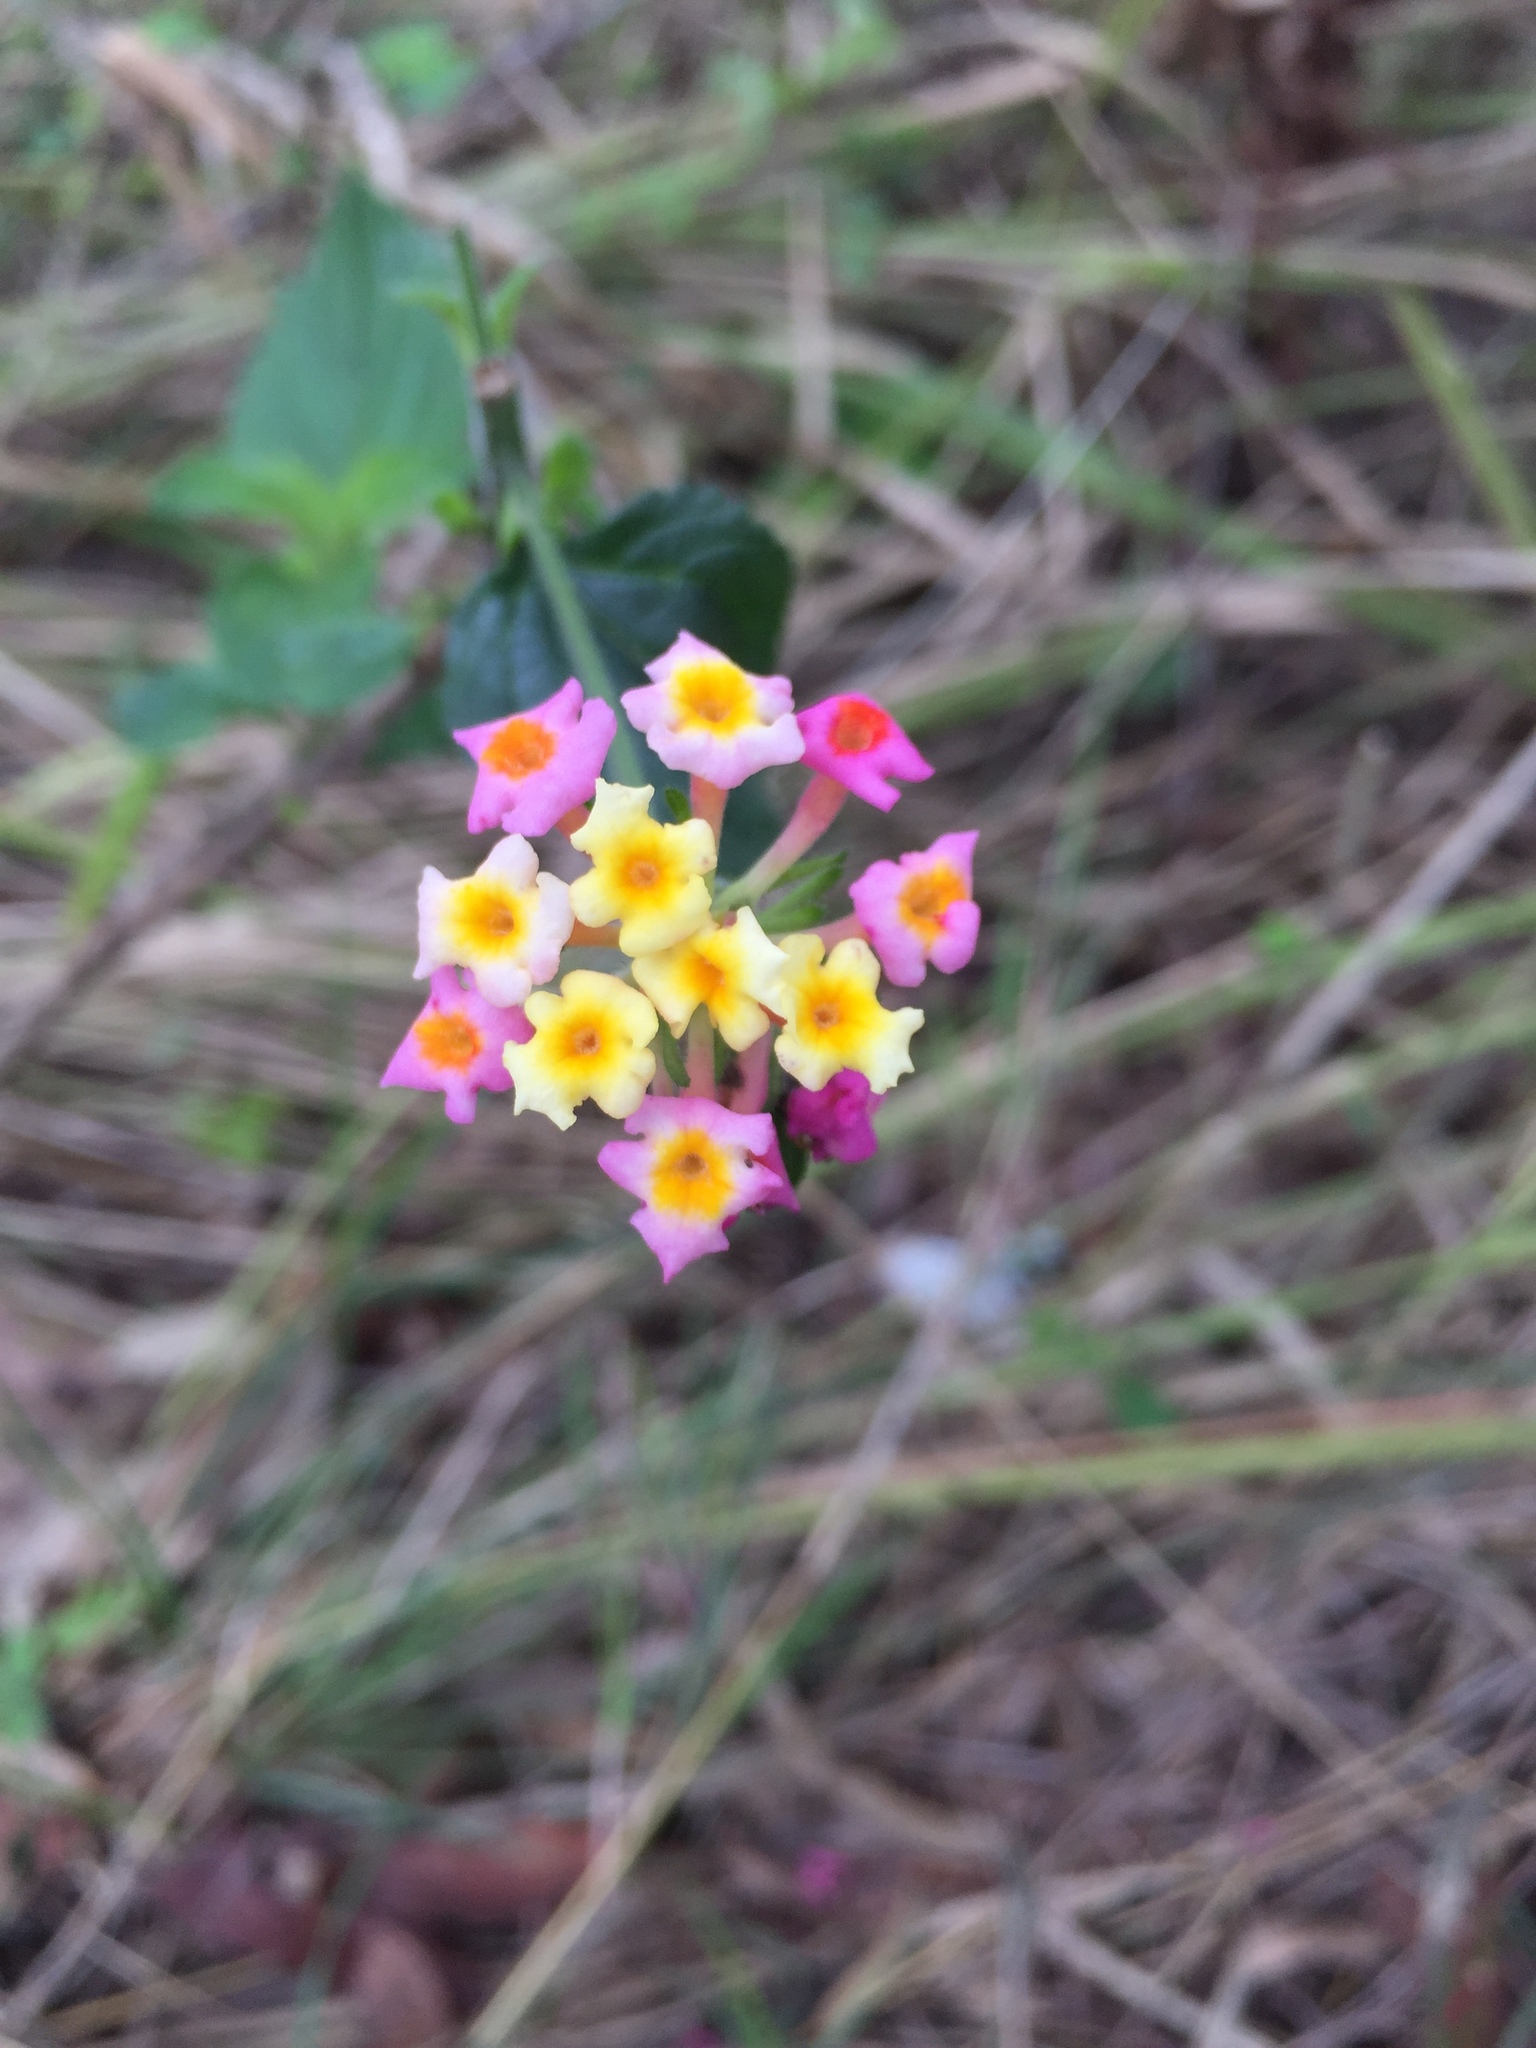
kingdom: Plantae
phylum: Tracheophyta
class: Magnoliopsida
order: Lamiales
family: Verbenaceae
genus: Lantana
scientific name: Lantana camara
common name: Lantana
